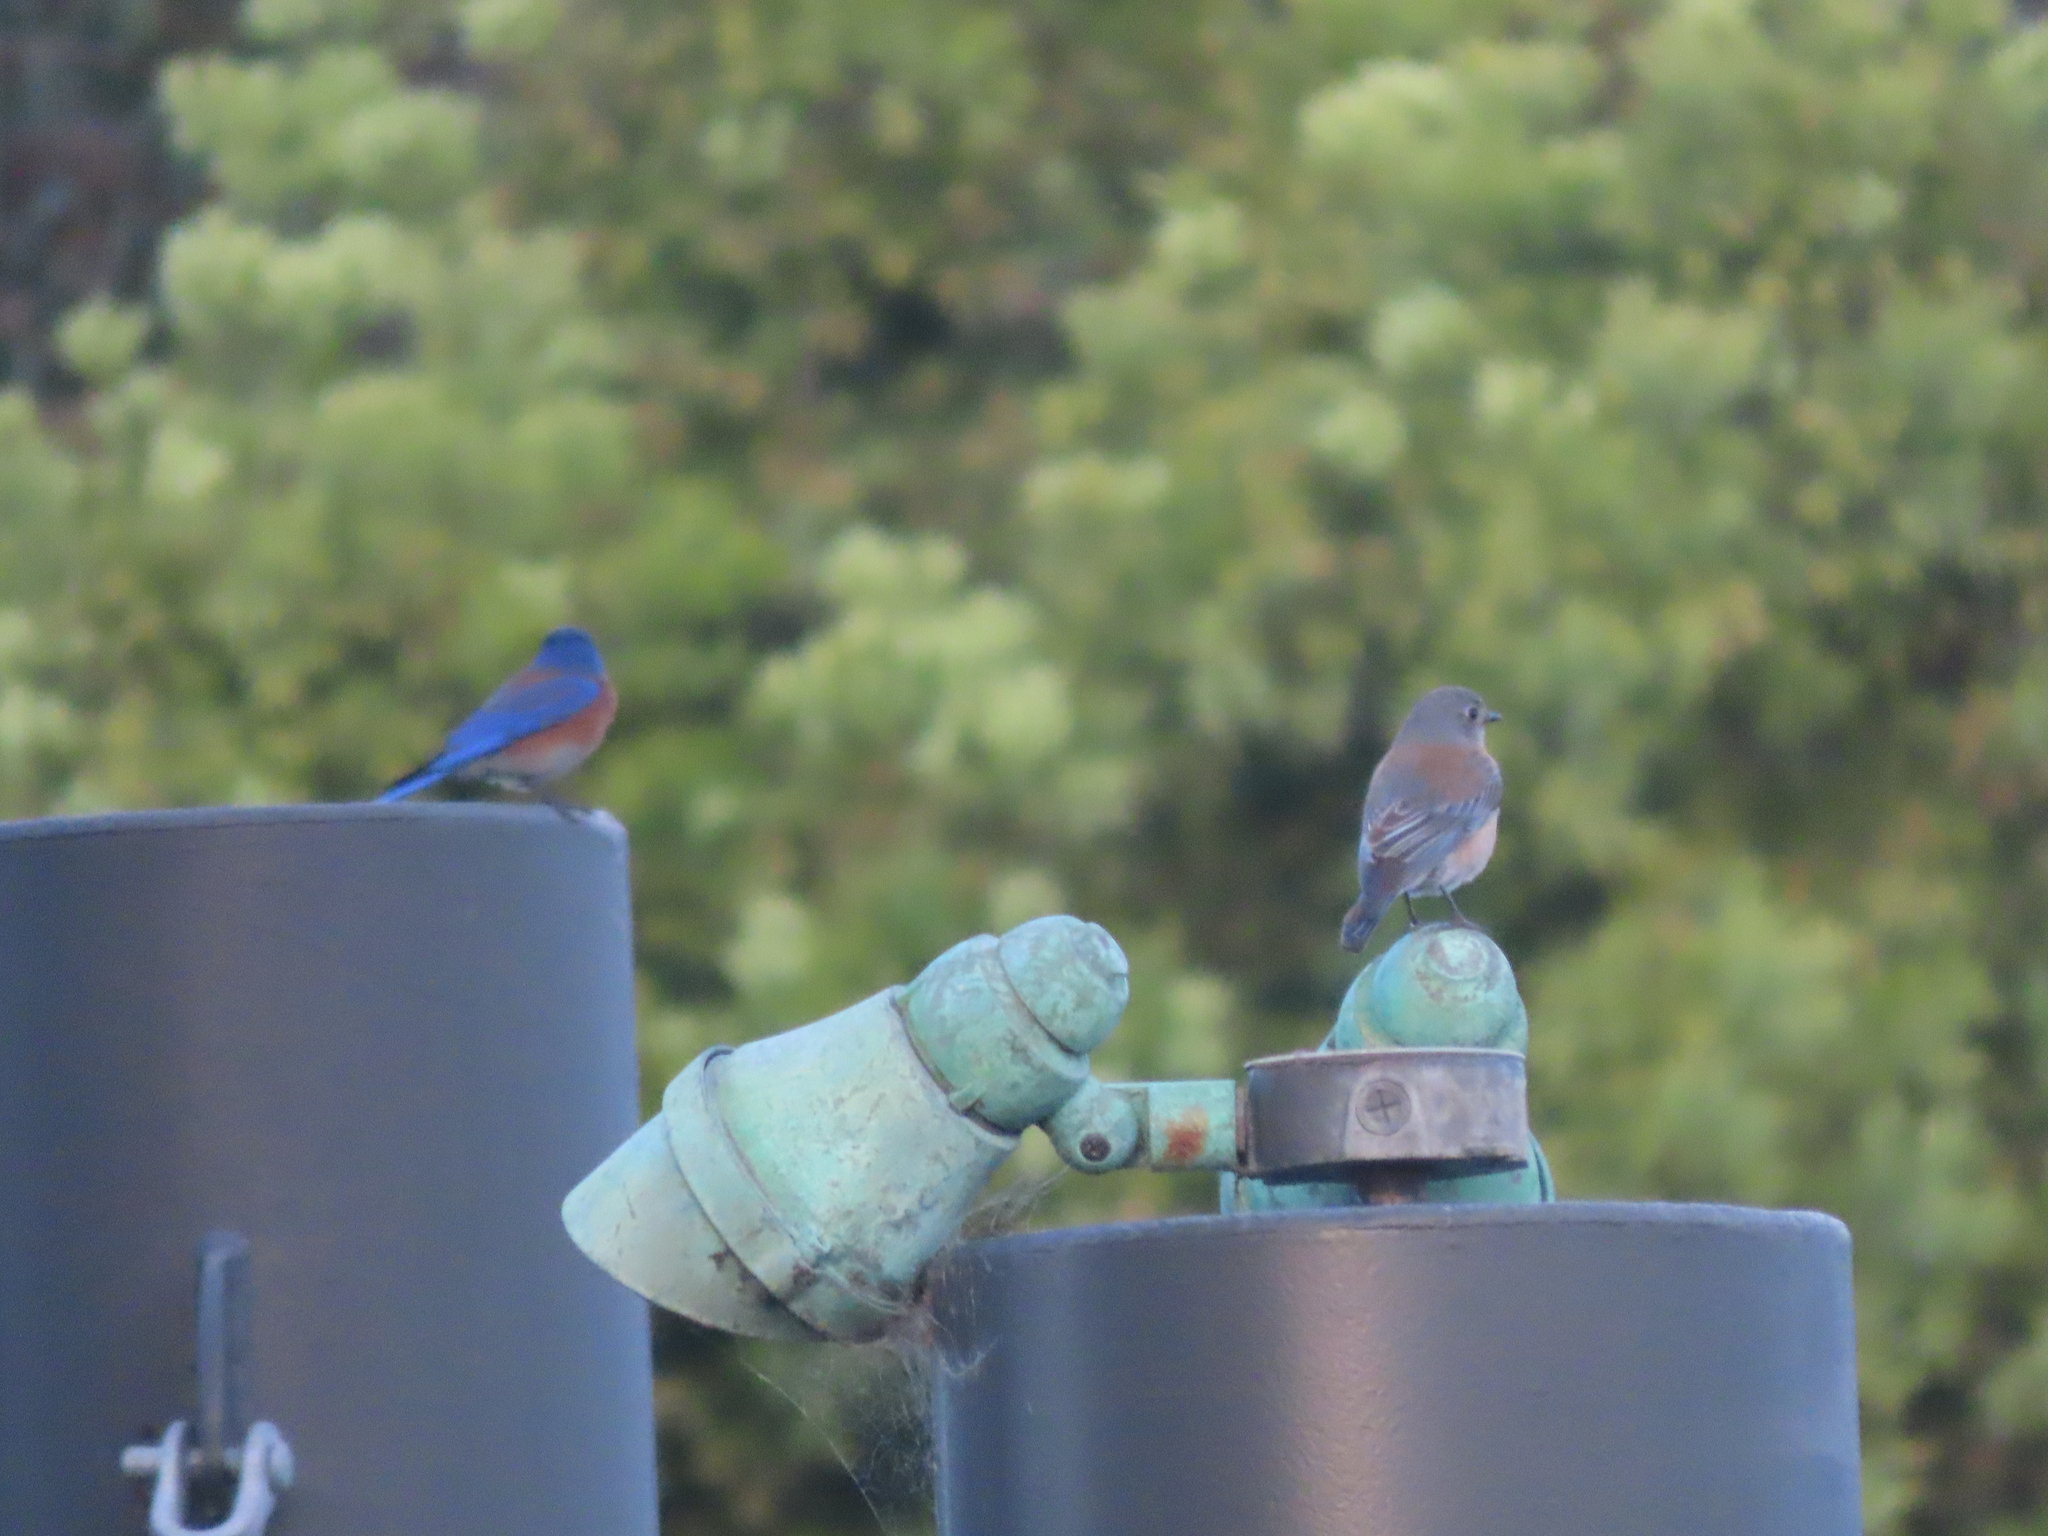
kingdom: Animalia
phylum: Chordata
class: Aves
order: Passeriformes
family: Turdidae
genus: Sialia
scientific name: Sialia mexicana
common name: Western bluebird
